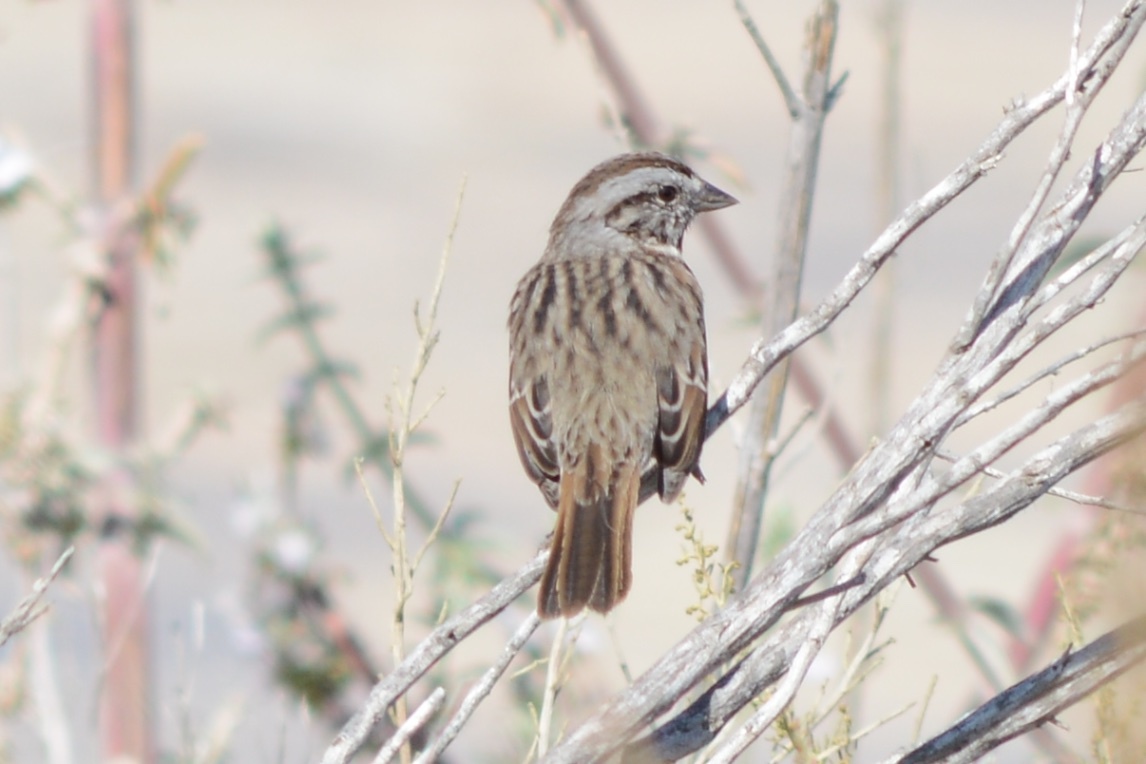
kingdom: Animalia
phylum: Chordata
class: Aves
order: Passeriformes
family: Passerellidae
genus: Melospiza
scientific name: Melospiza melodia
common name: Song sparrow
